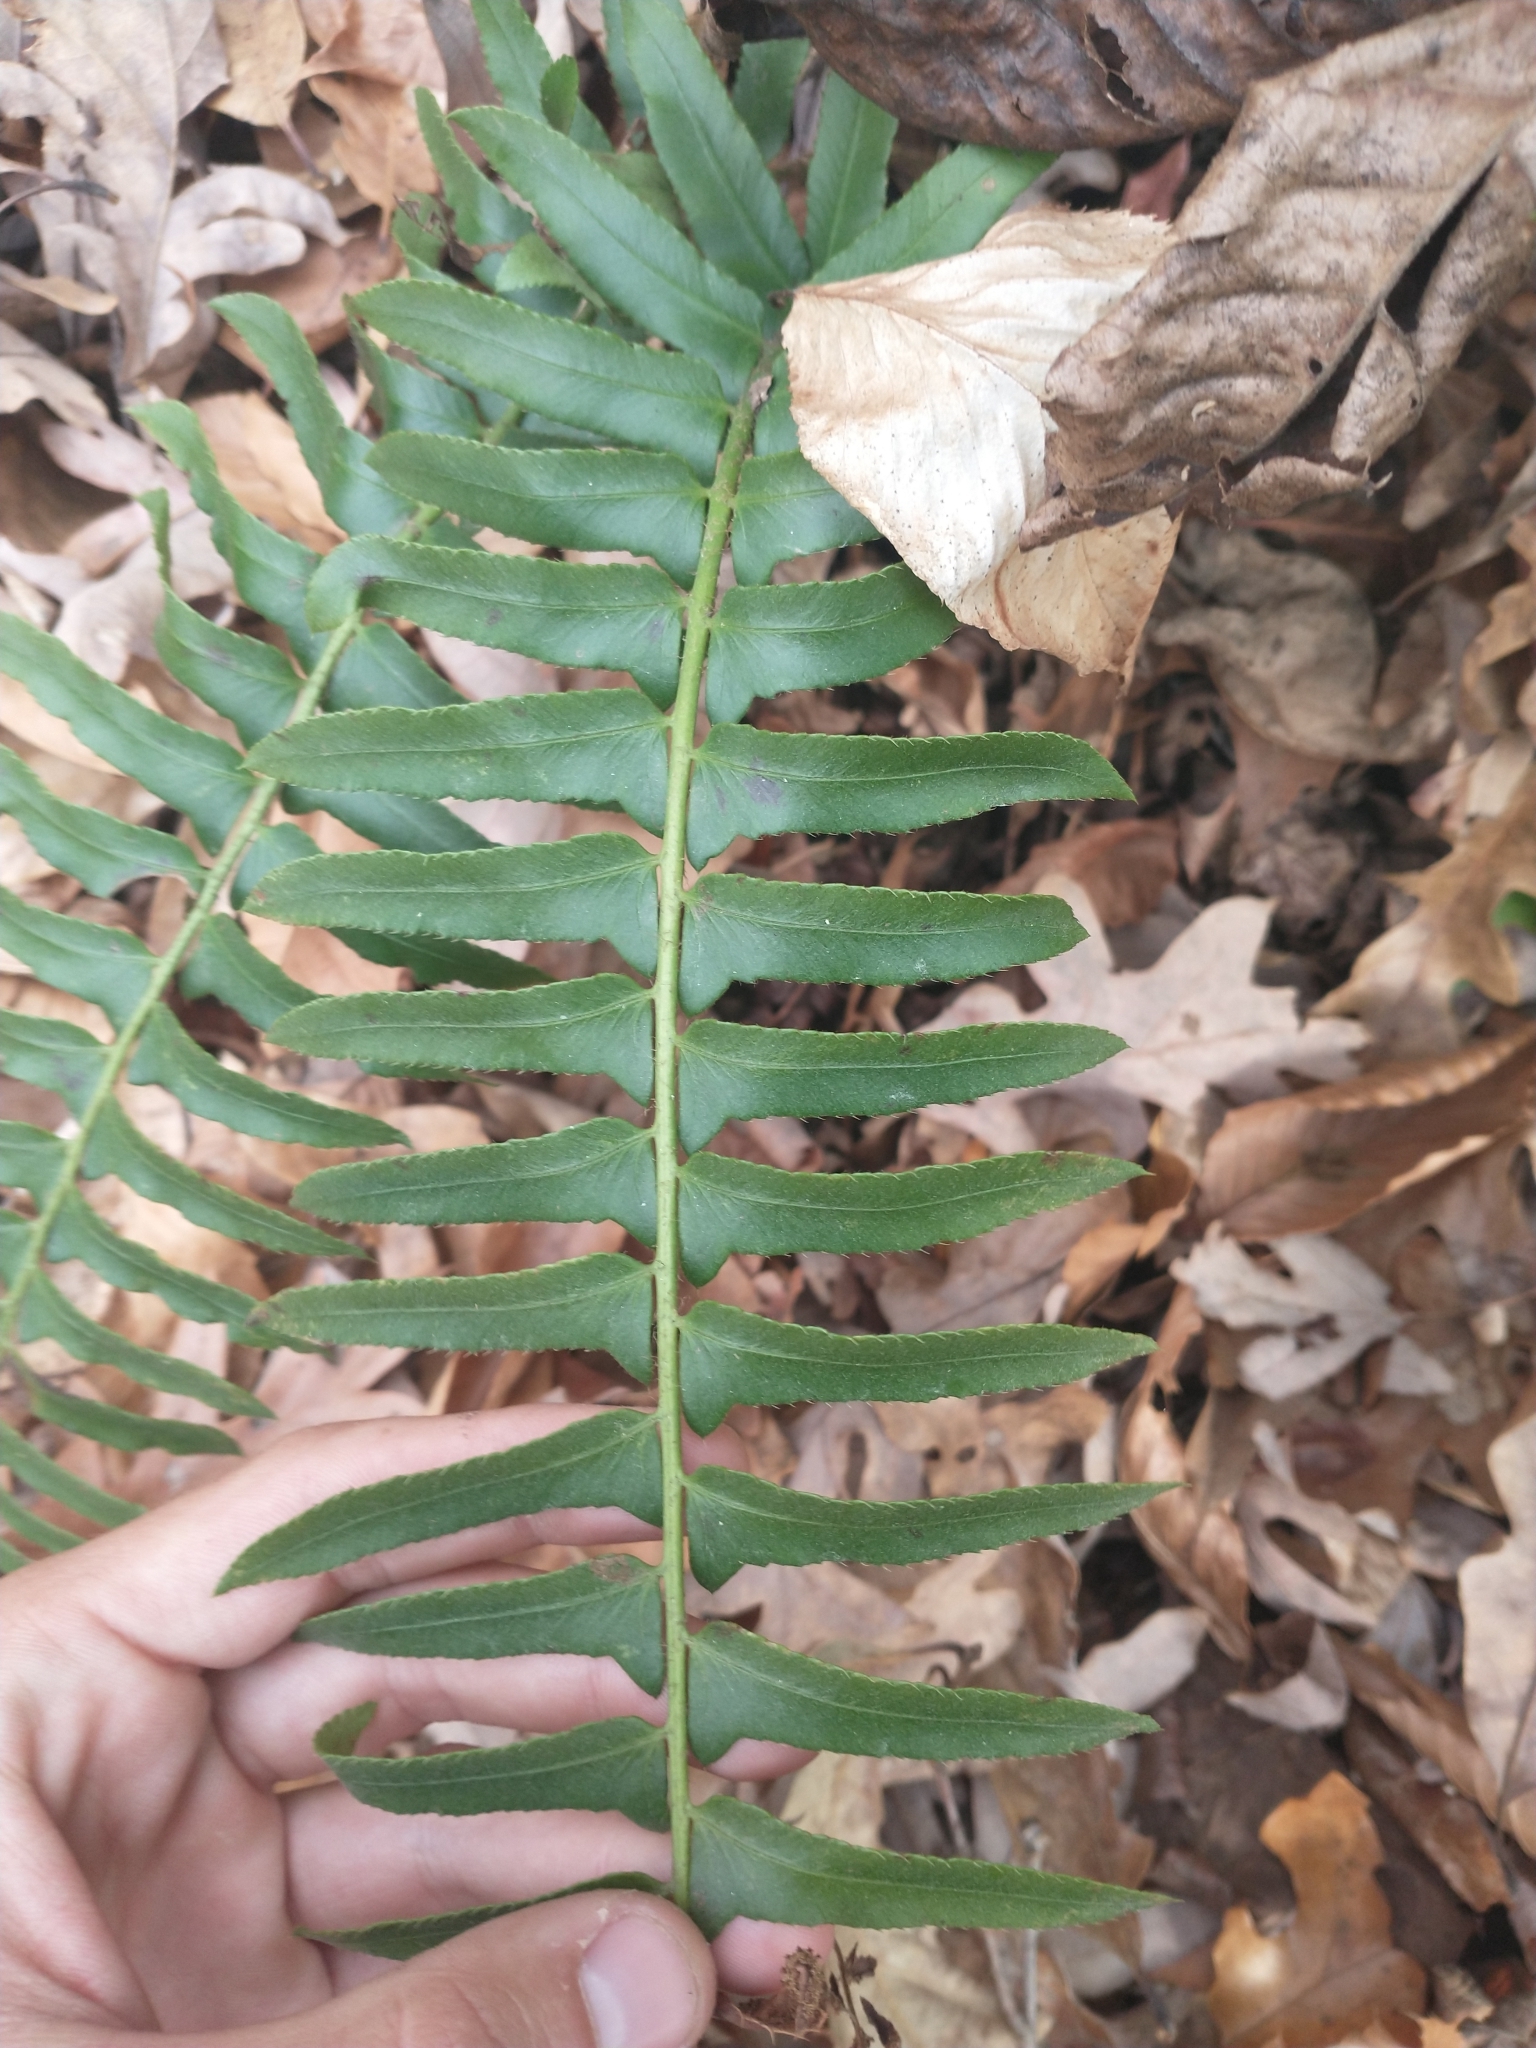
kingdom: Plantae
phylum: Tracheophyta
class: Polypodiopsida
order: Polypodiales
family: Dryopteridaceae
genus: Polystichum
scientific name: Polystichum acrostichoides
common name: Christmas fern
